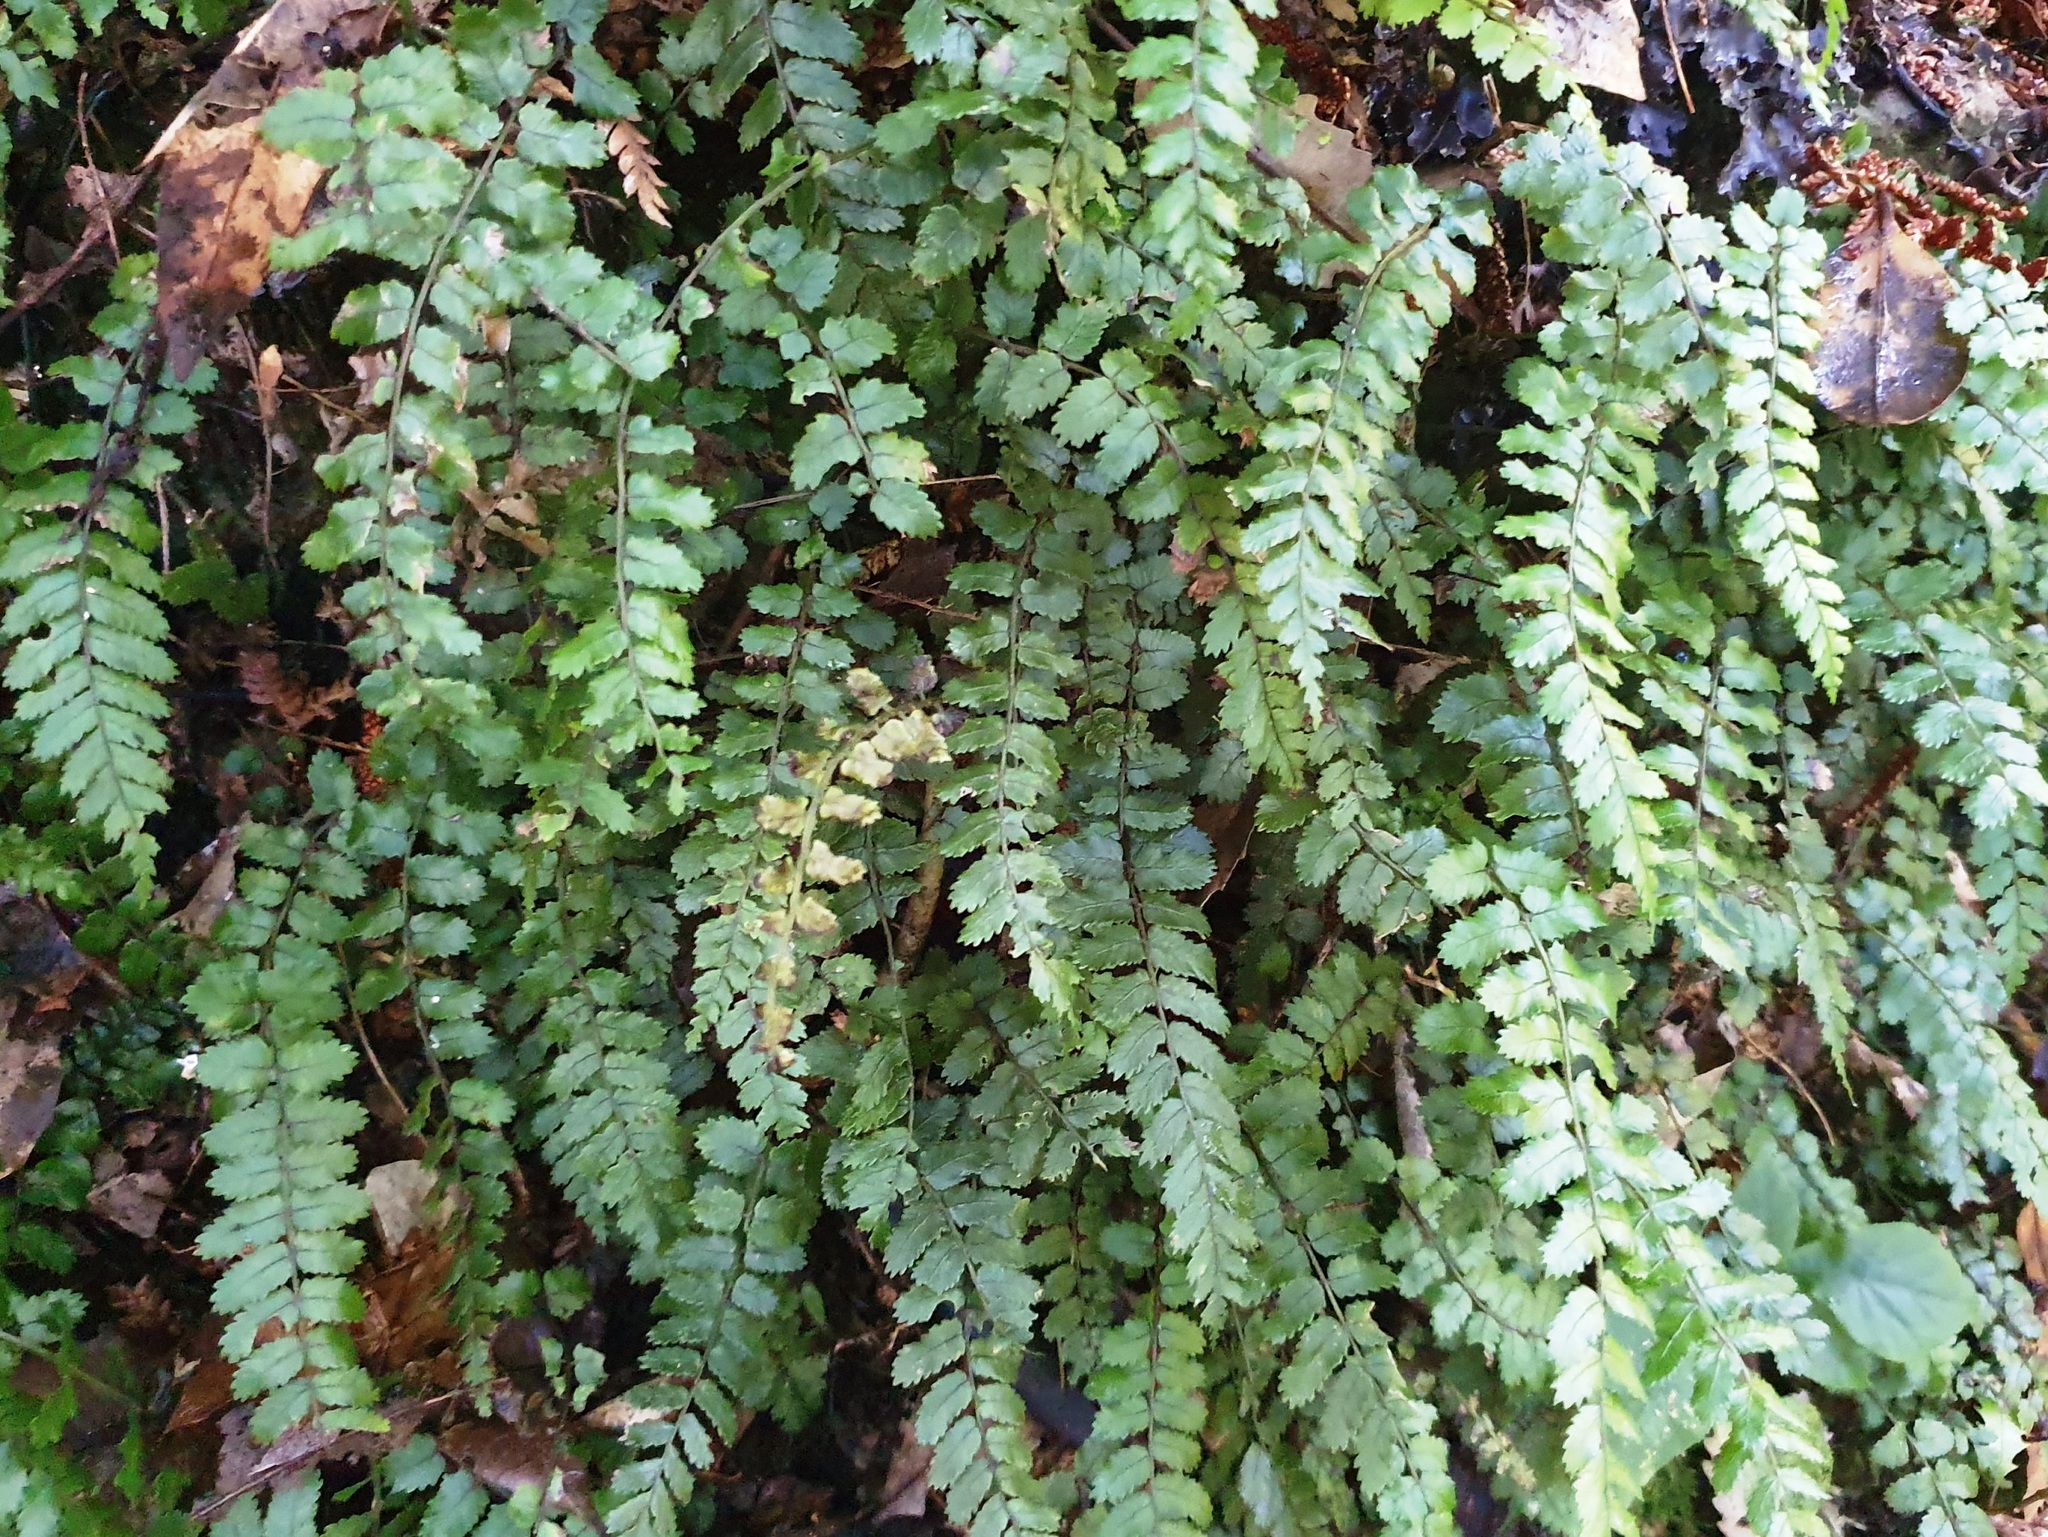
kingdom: Plantae
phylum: Tracheophyta
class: Polypodiopsida
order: Polypodiales
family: Blechnaceae
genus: Icarus
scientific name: Icarus filiformis
